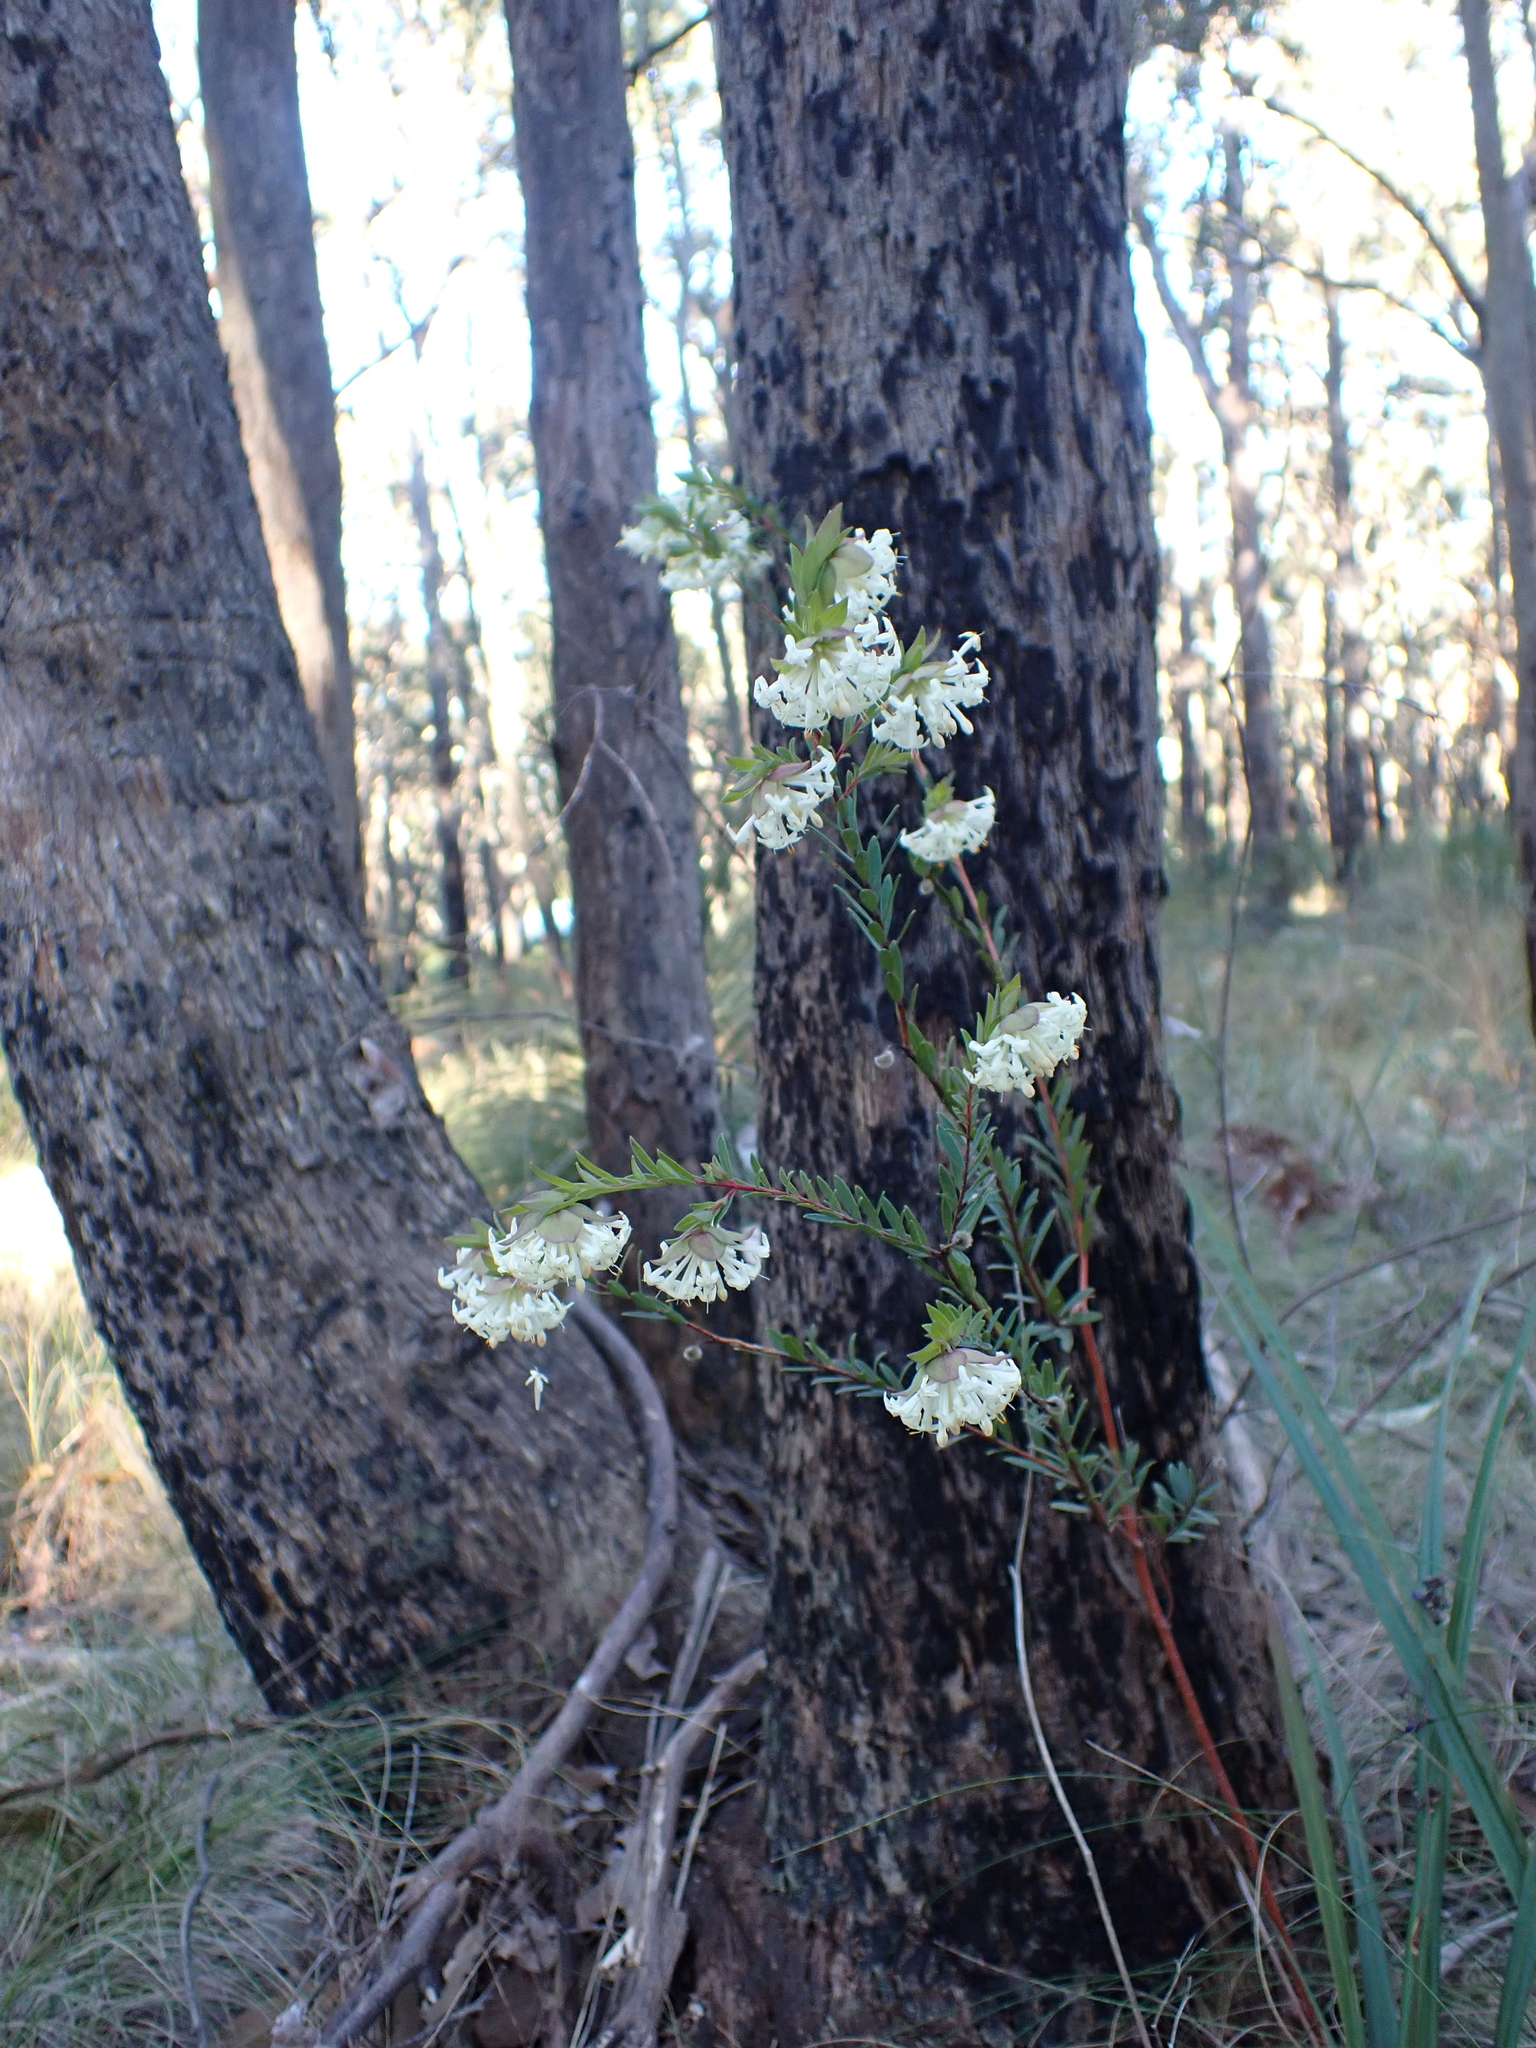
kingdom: Plantae
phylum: Tracheophyta
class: Magnoliopsida
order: Malvales
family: Thymelaeaceae
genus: Pimelea
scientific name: Pimelea linifolia
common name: Queen-of-the-bush
